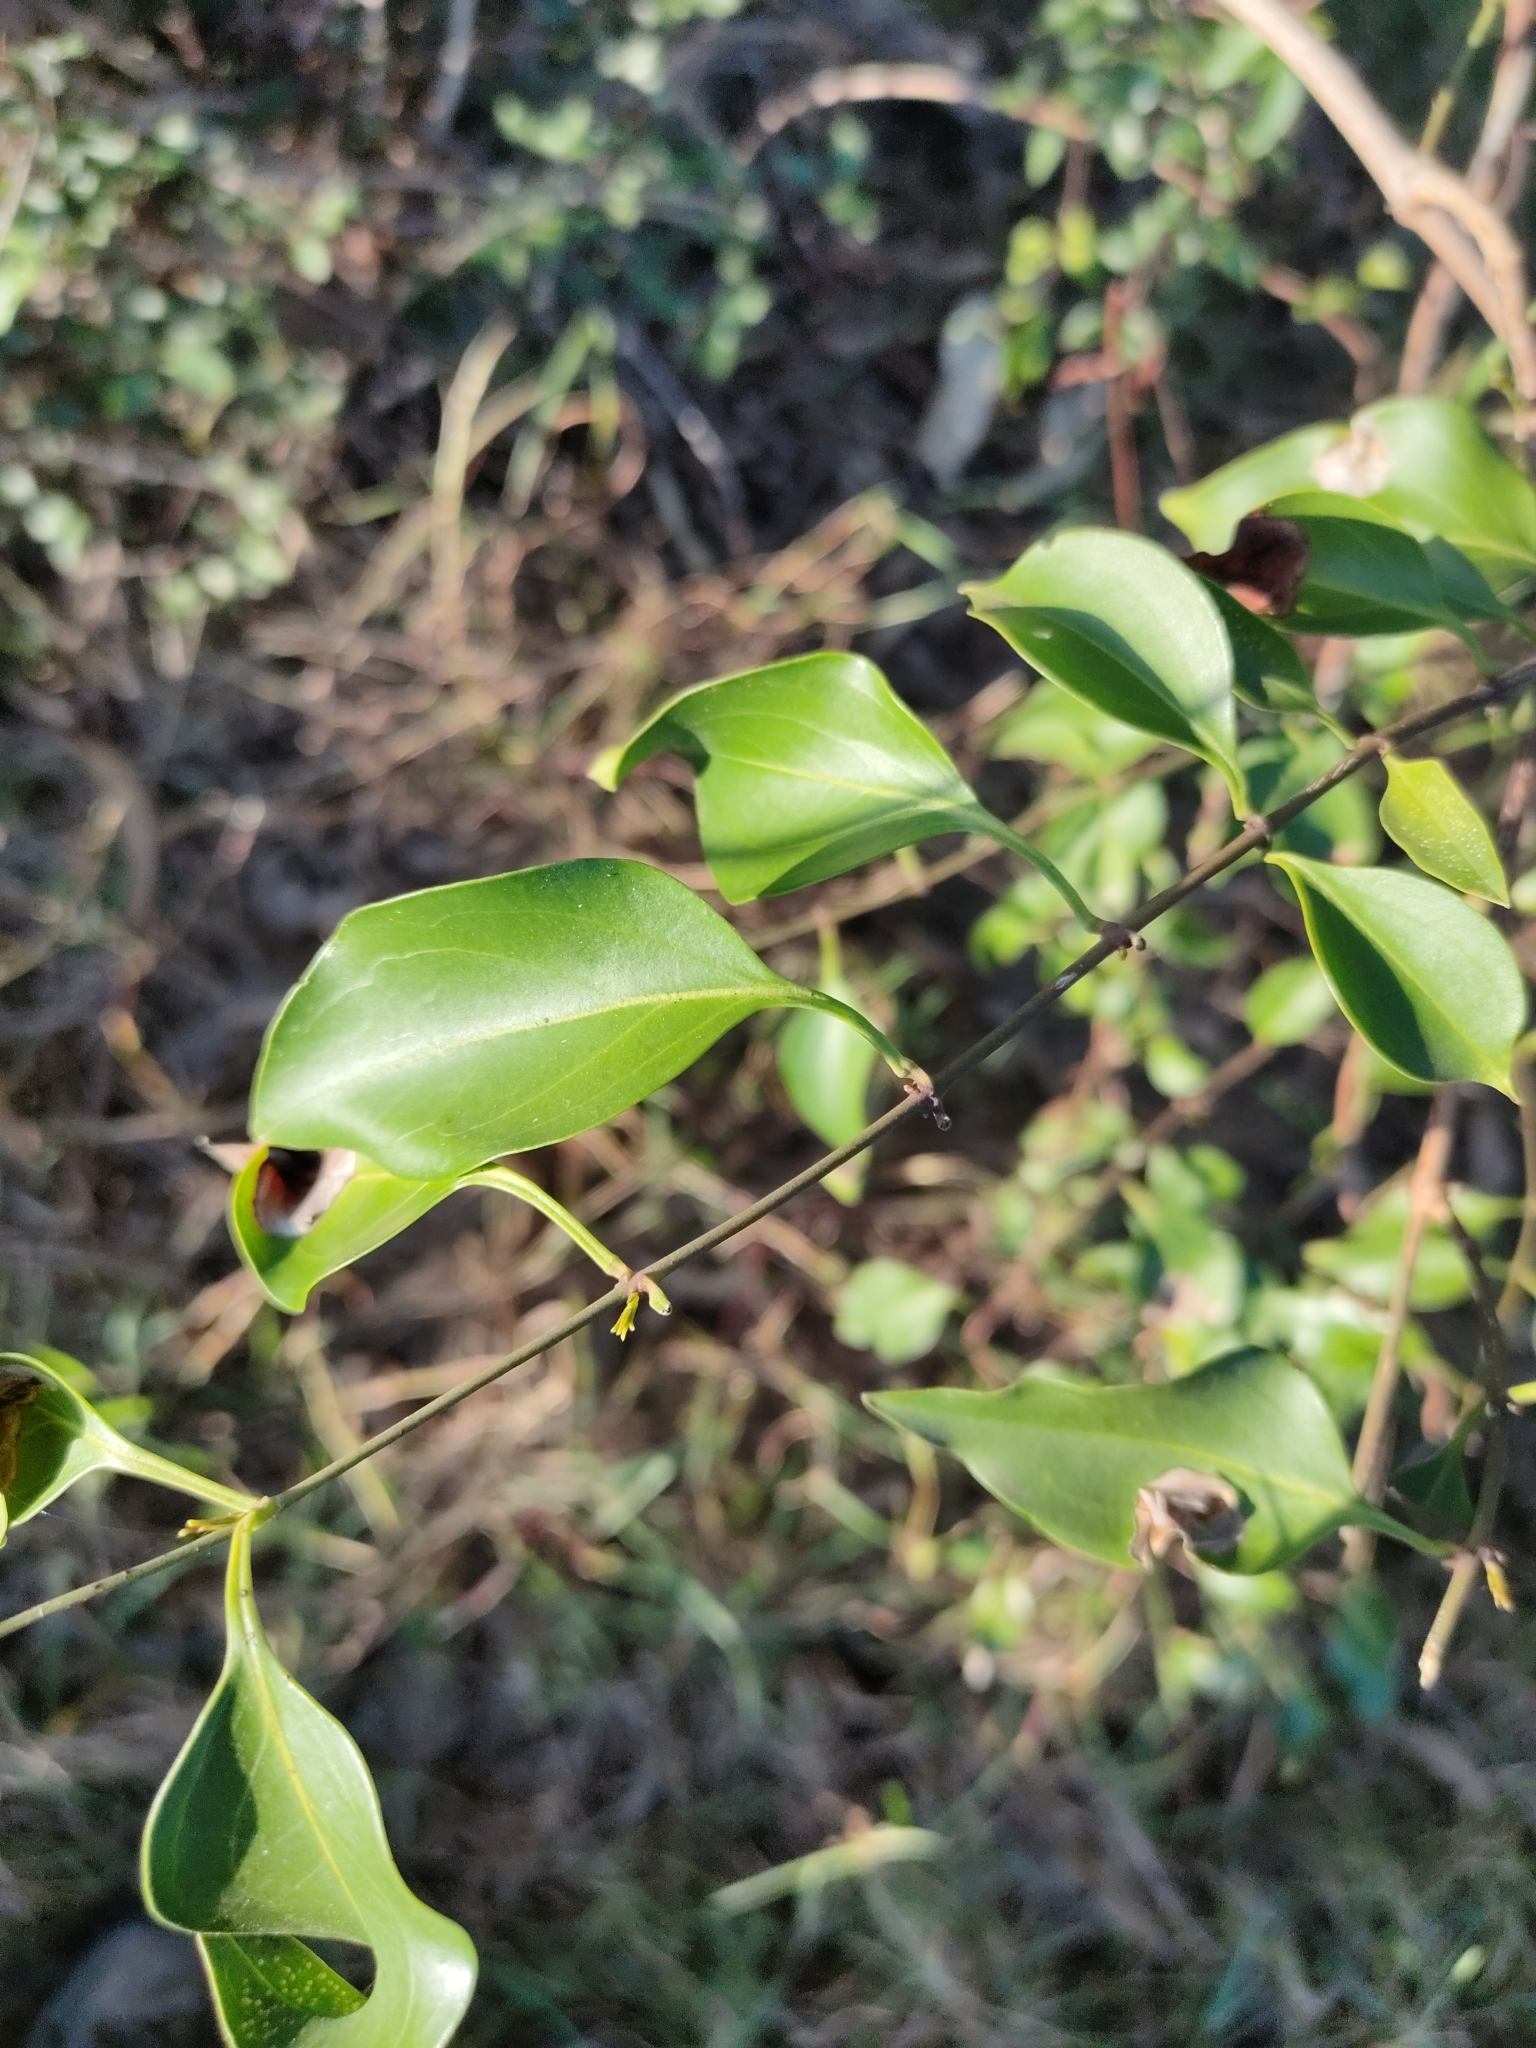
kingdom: Plantae
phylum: Tracheophyta
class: Magnoliopsida
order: Lamiales
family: Oleaceae
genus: Jasminum
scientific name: Jasminum simplicifolium
